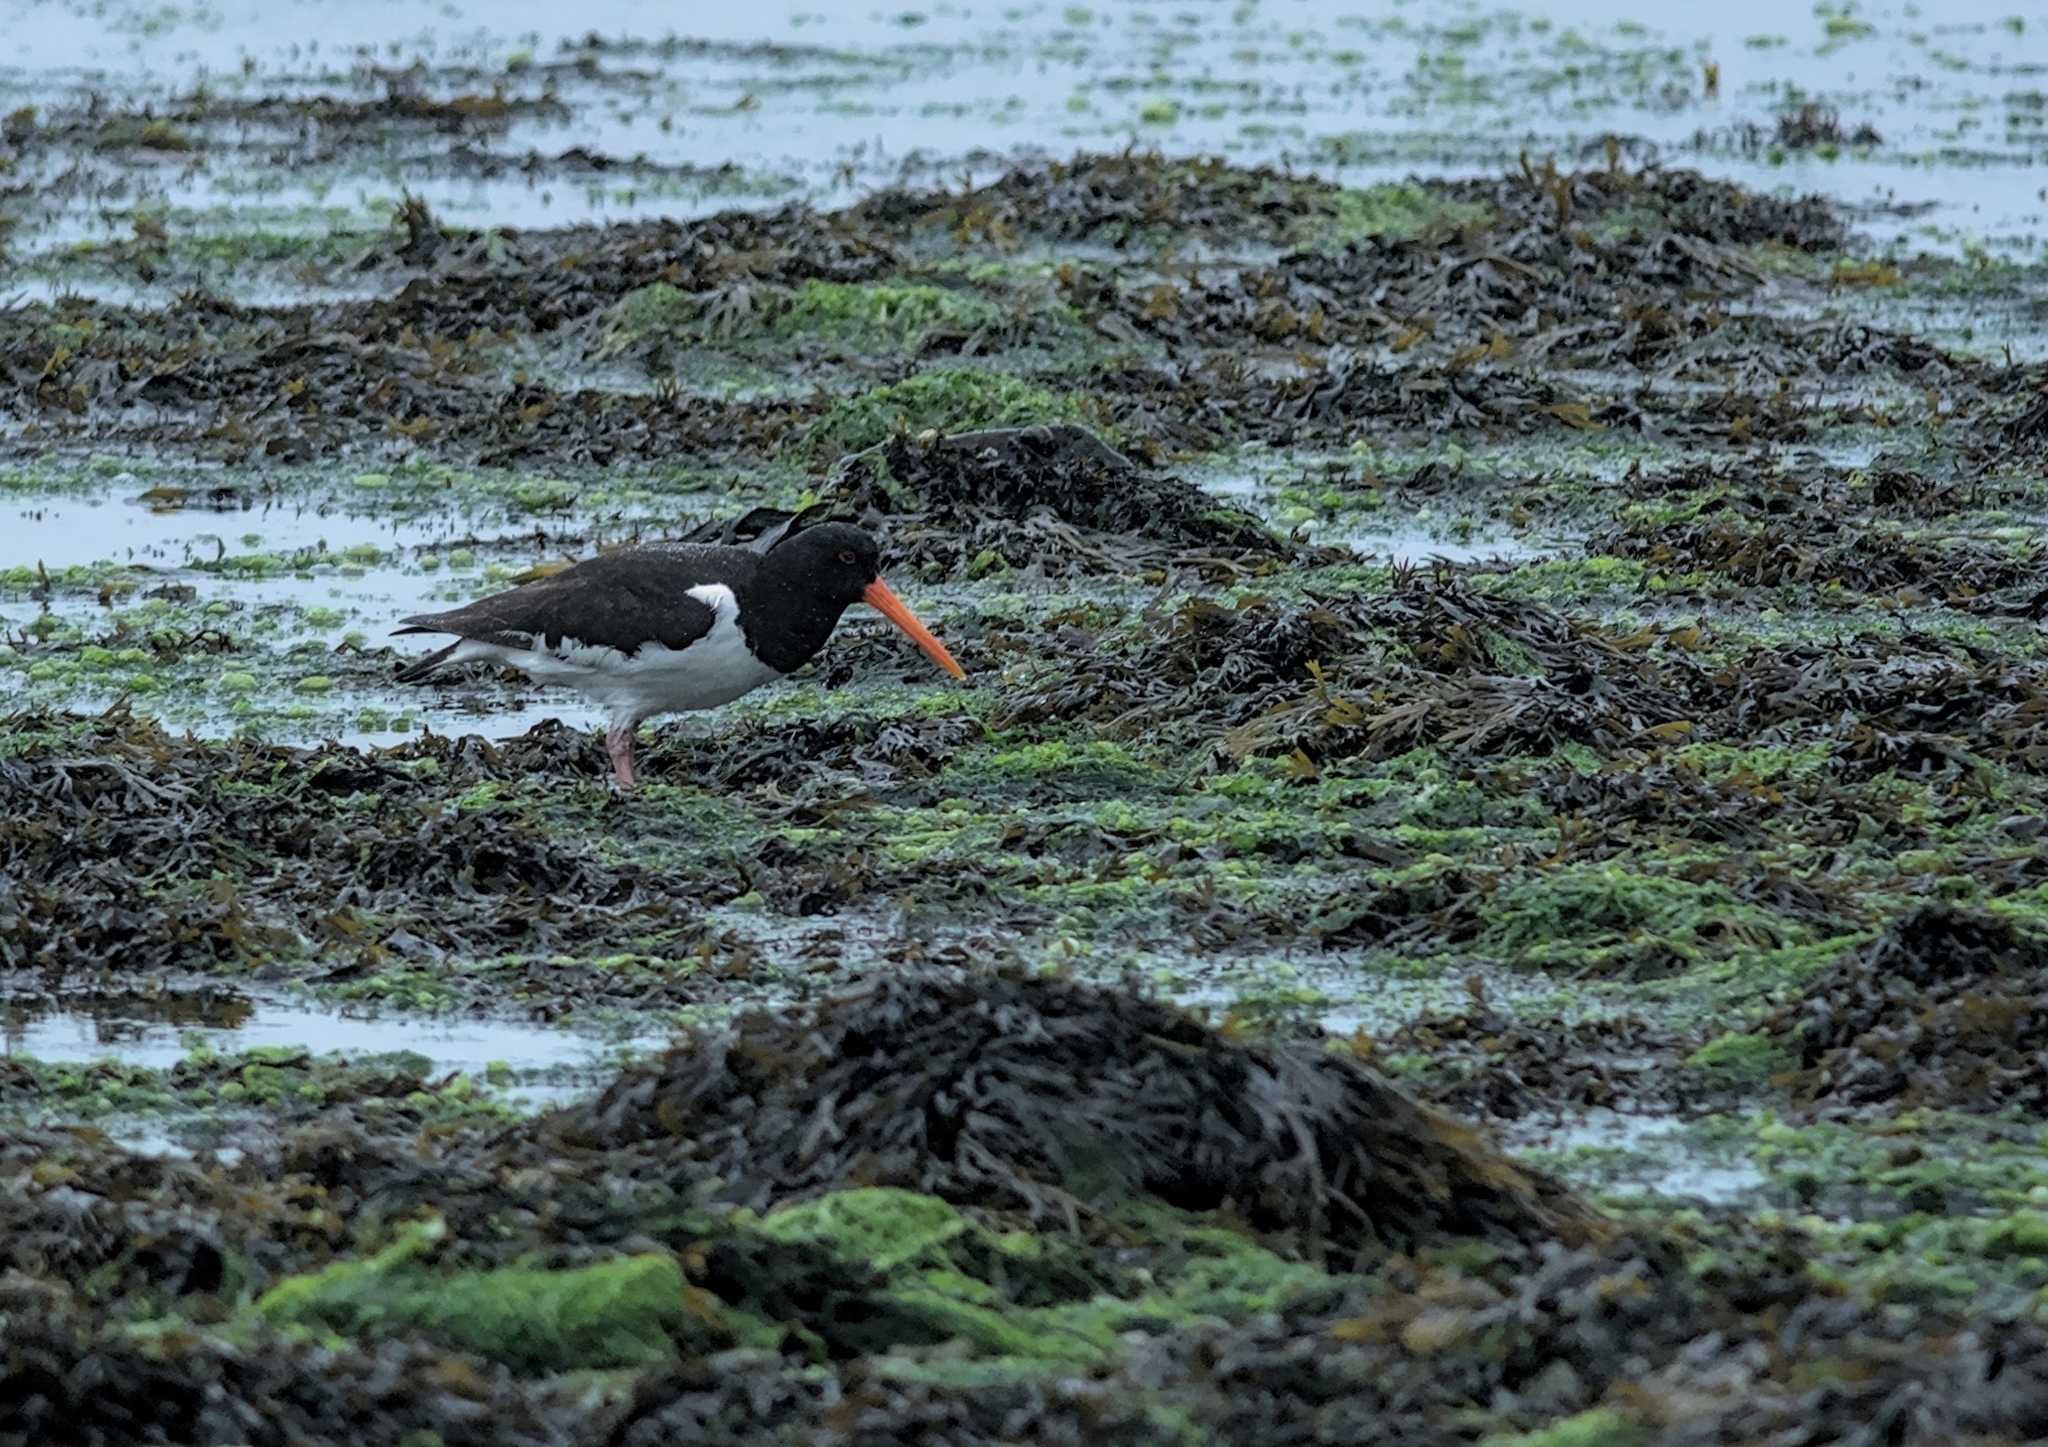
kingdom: Animalia
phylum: Chordata
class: Aves
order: Charadriiformes
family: Haematopodidae
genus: Haematopus
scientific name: Haematopus ostralegus
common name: Eurasian oystercatcher
